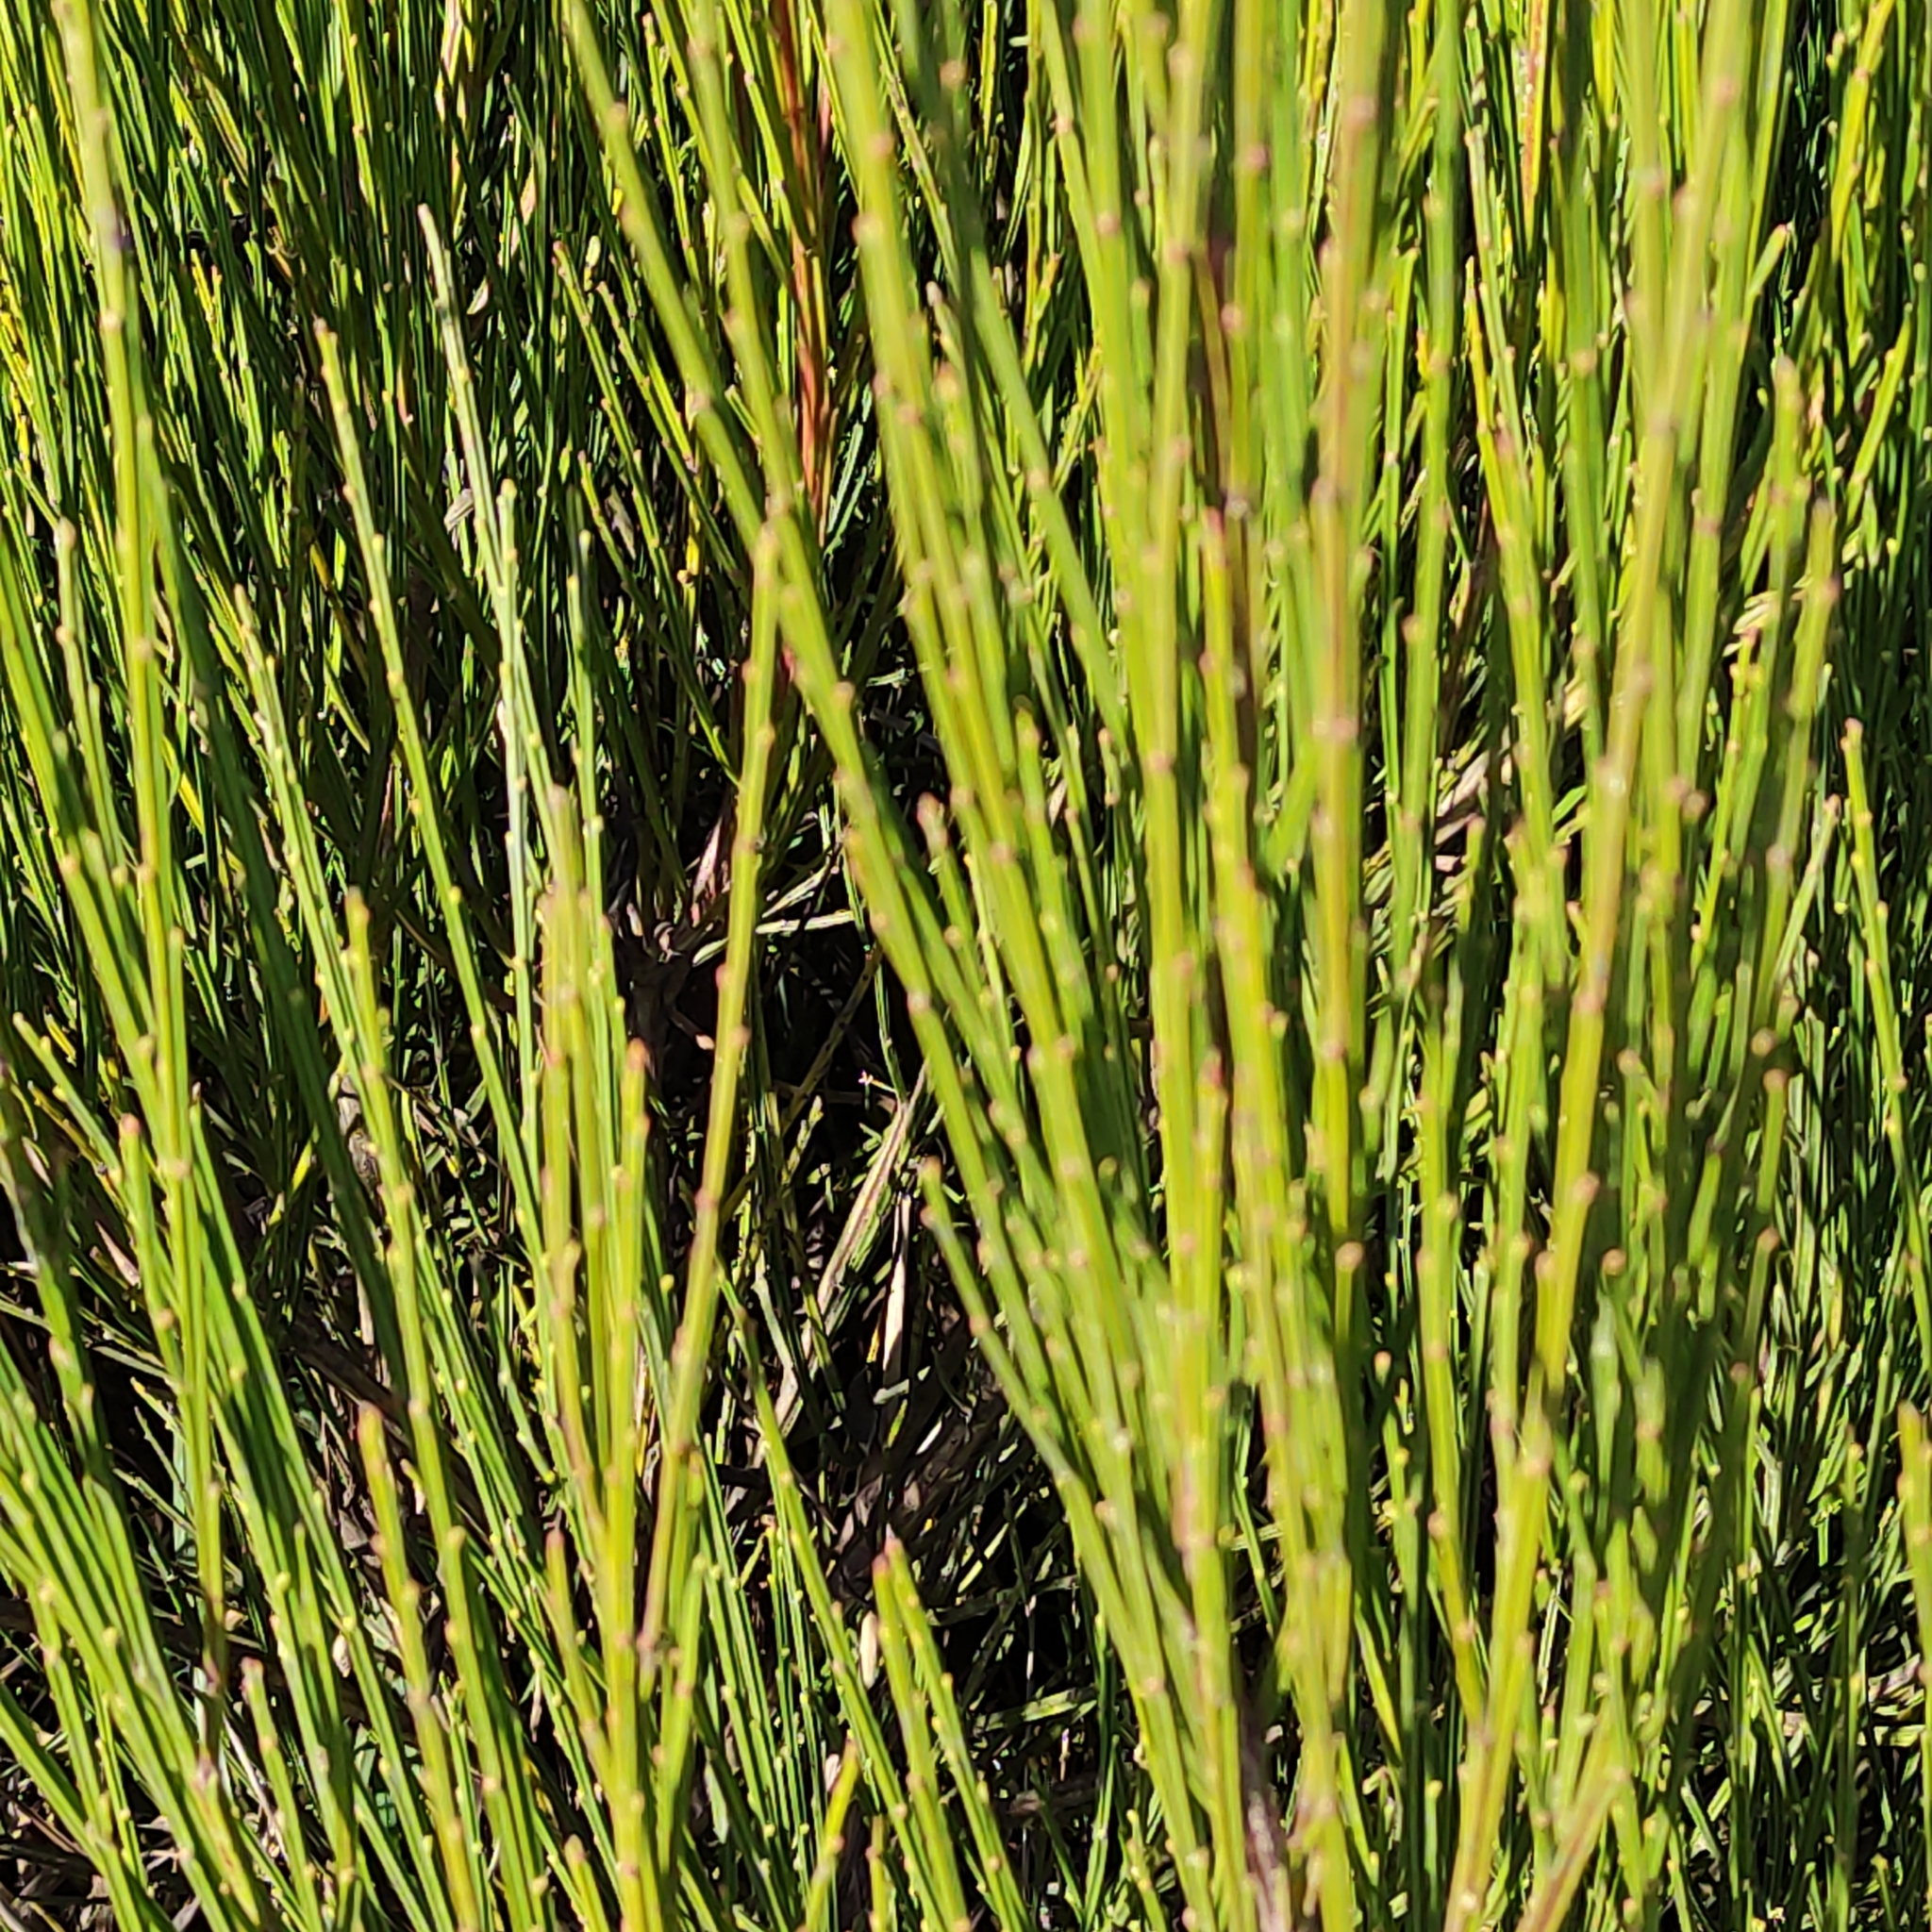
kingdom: Plantae
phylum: Tracheophyta
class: Magnoliopsida
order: Fabales
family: Fabaceae
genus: Cytisus
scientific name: Cytisus scoparius
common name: Scotch broom
